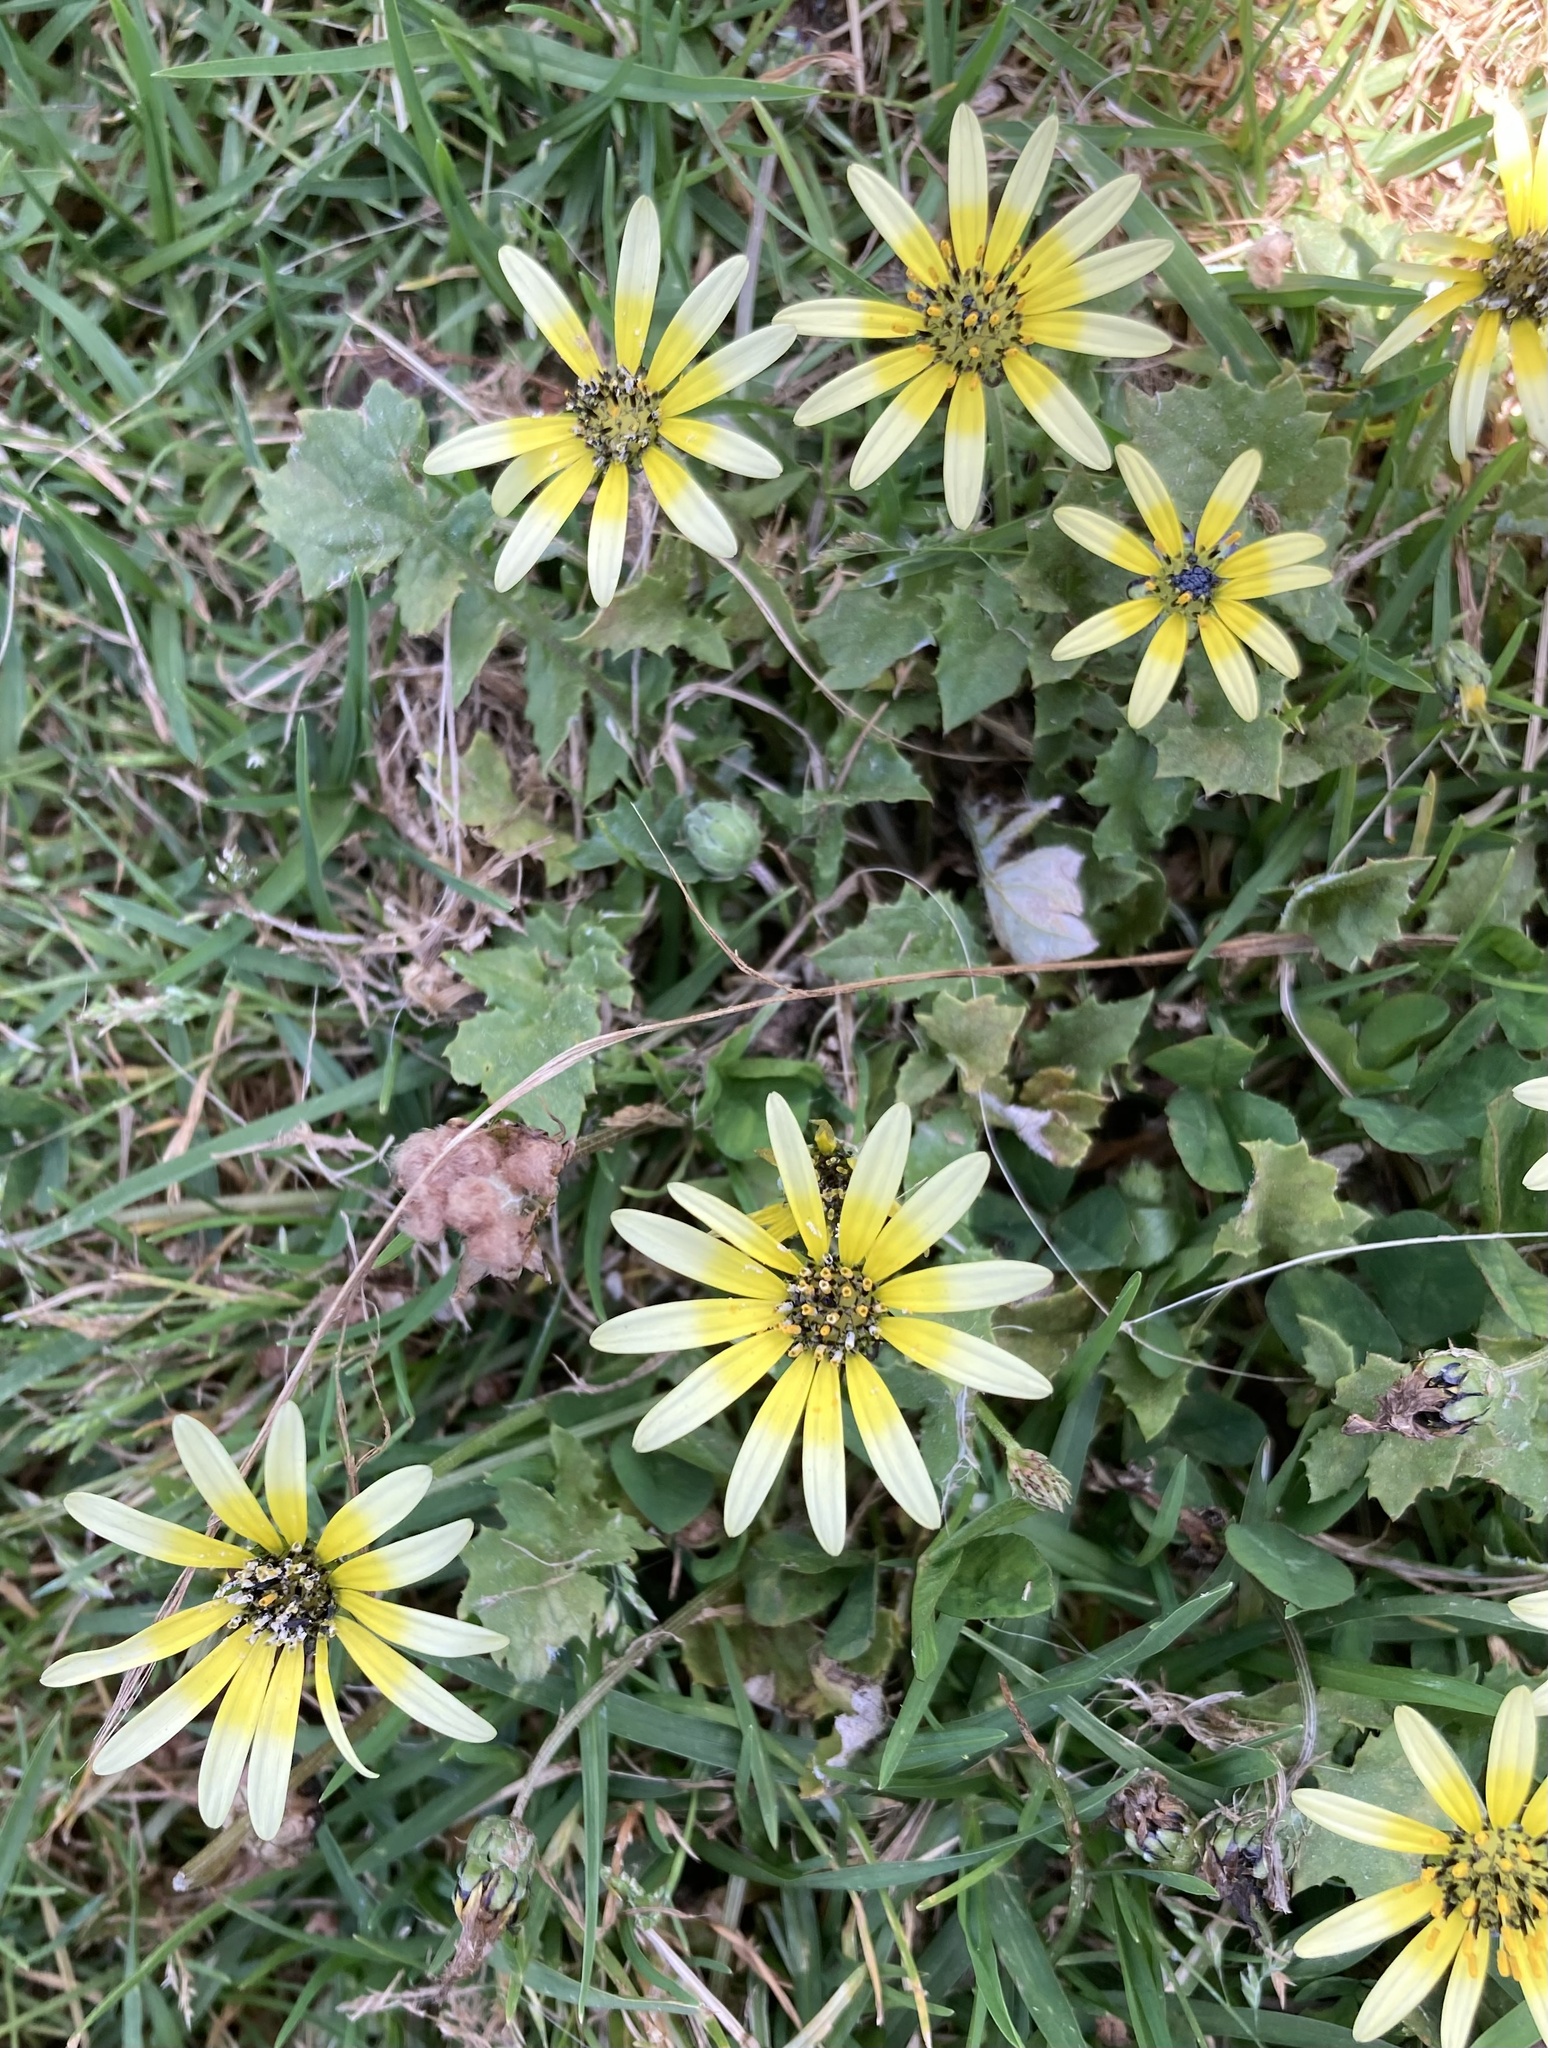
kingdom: Plantae
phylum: Tracheophyta
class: Magnoliopsida
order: Asterales
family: Asteraceae
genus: Arctotheca
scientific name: Arctotheca calendula
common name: Capeweed
